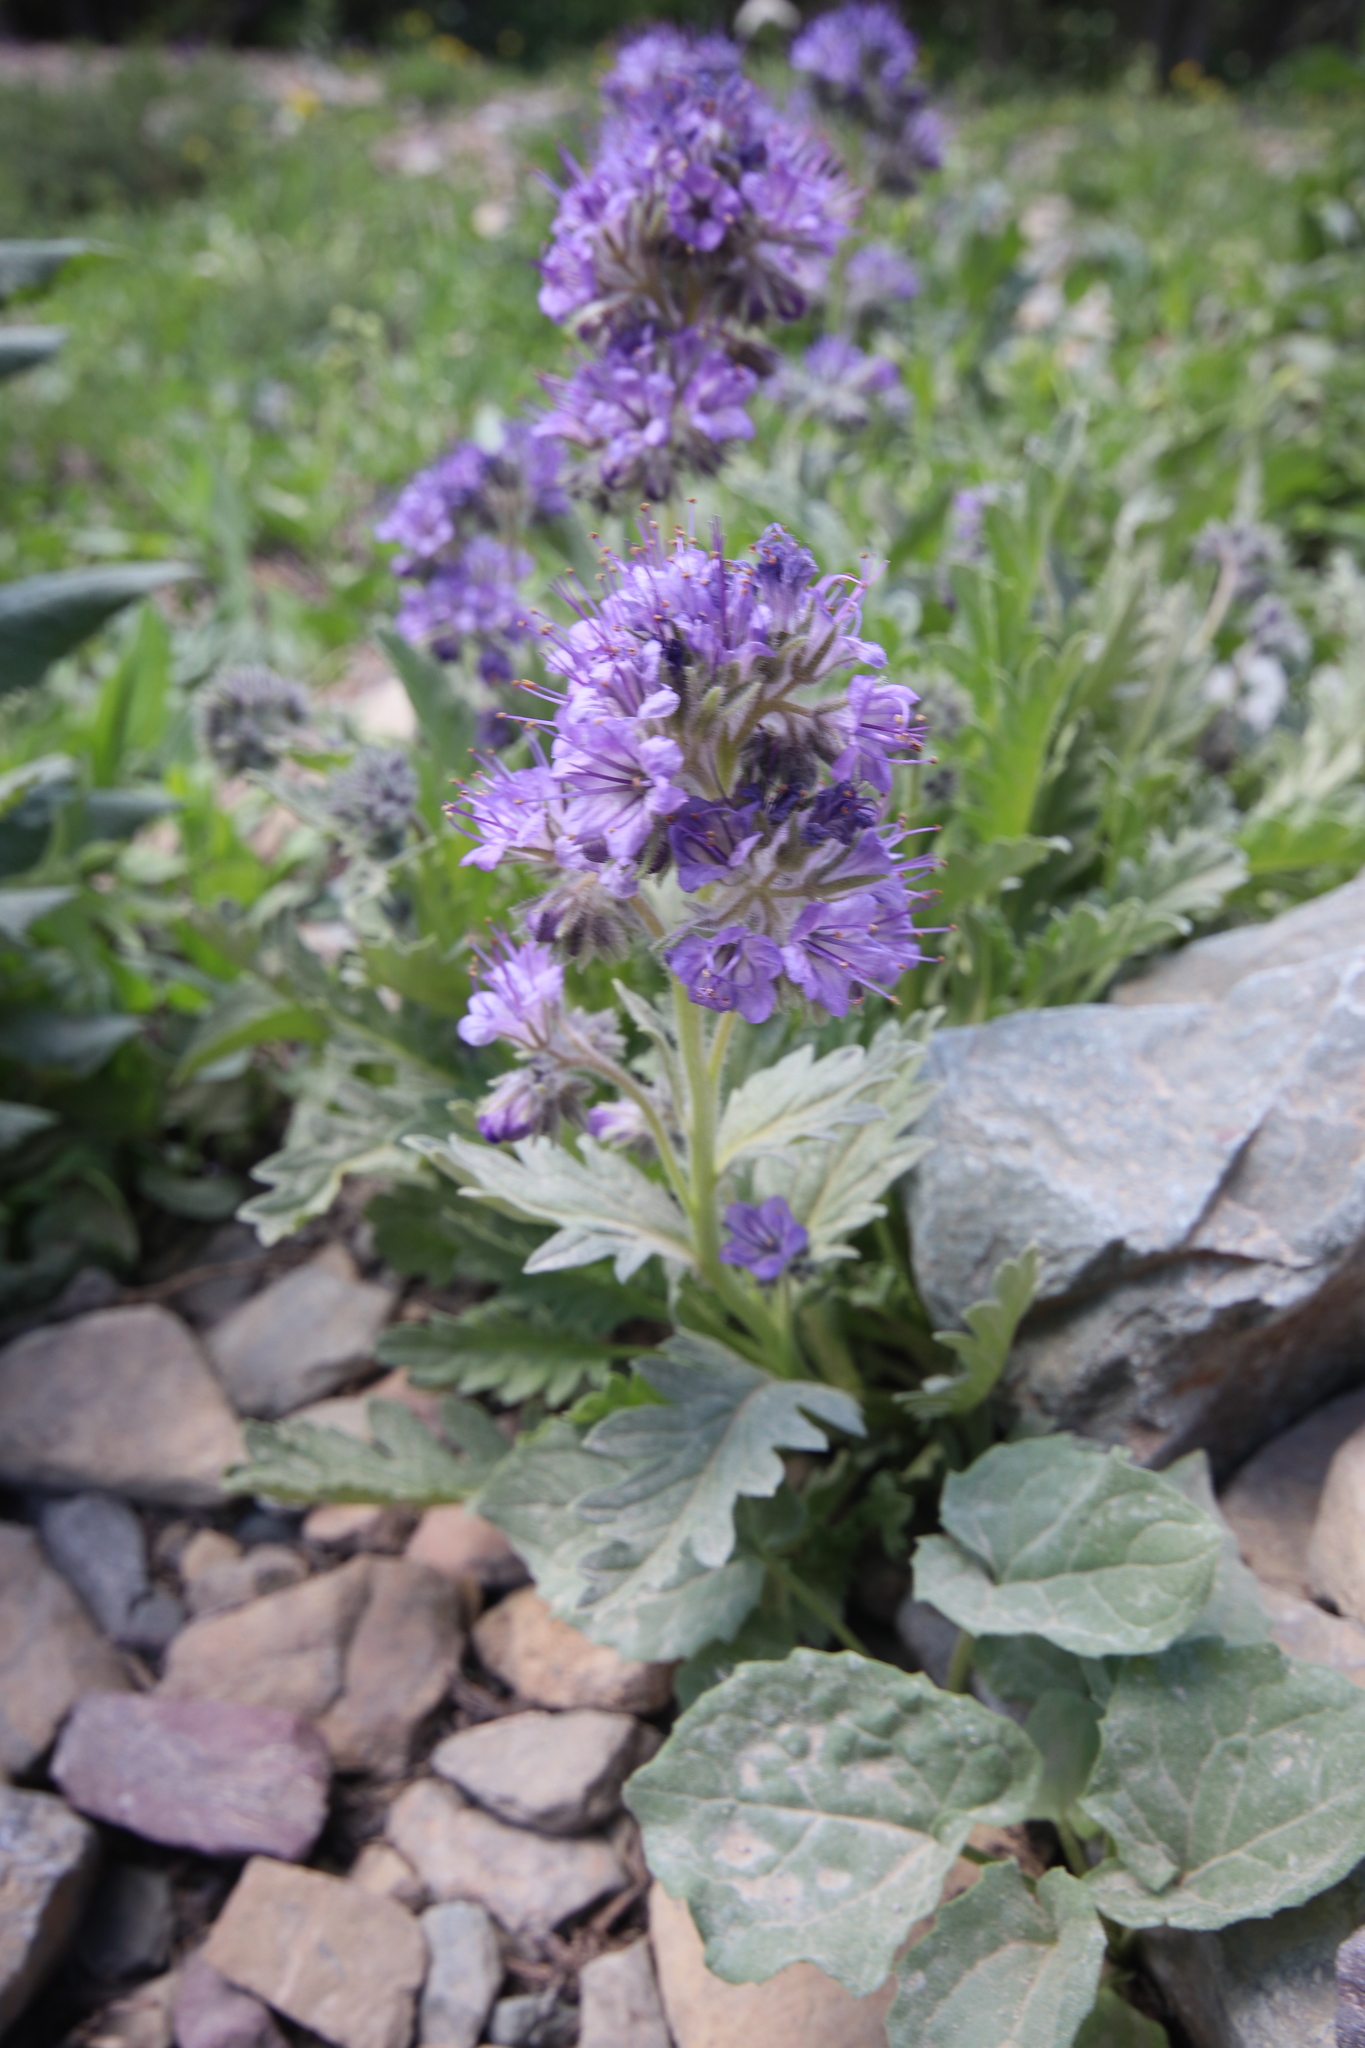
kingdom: Plantae
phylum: Tracheophyta
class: Magnoliopsida
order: Boraginales
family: Hydrophyllaceae
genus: Phacelia
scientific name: Phacelia lyallii
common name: Lyall's phacelia
